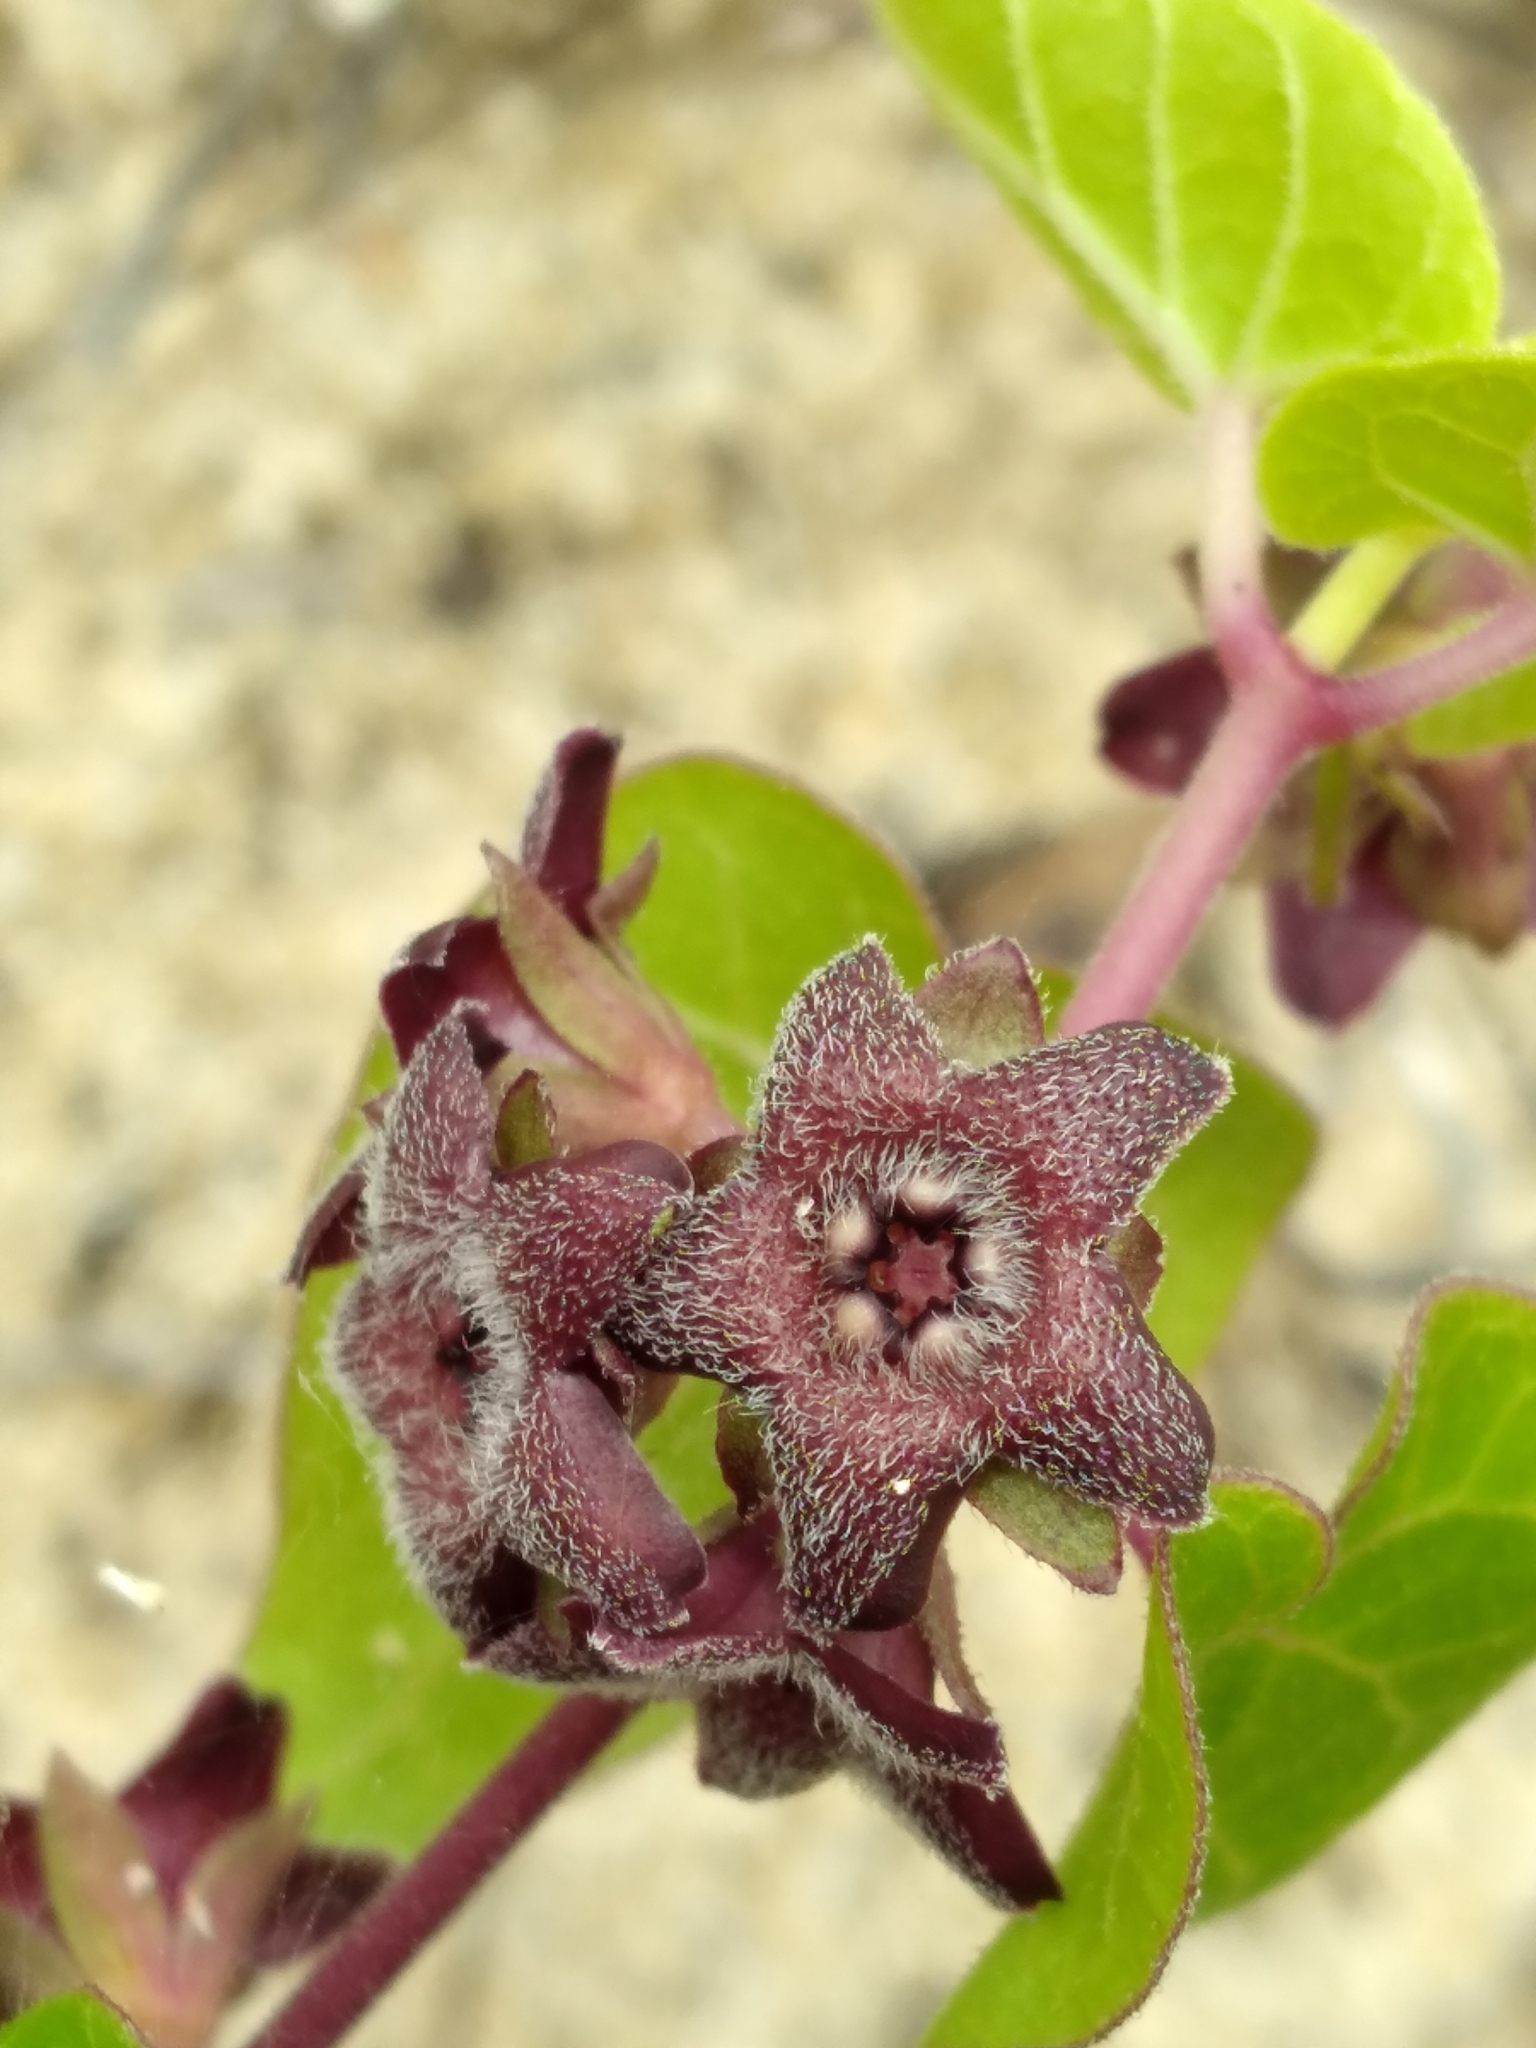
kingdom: Plantae
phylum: Tracheophyta
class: Magnoliopsida
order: Gentianales
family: Apocynaceae
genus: Chthamalia
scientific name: Chthamalia pubiflora
